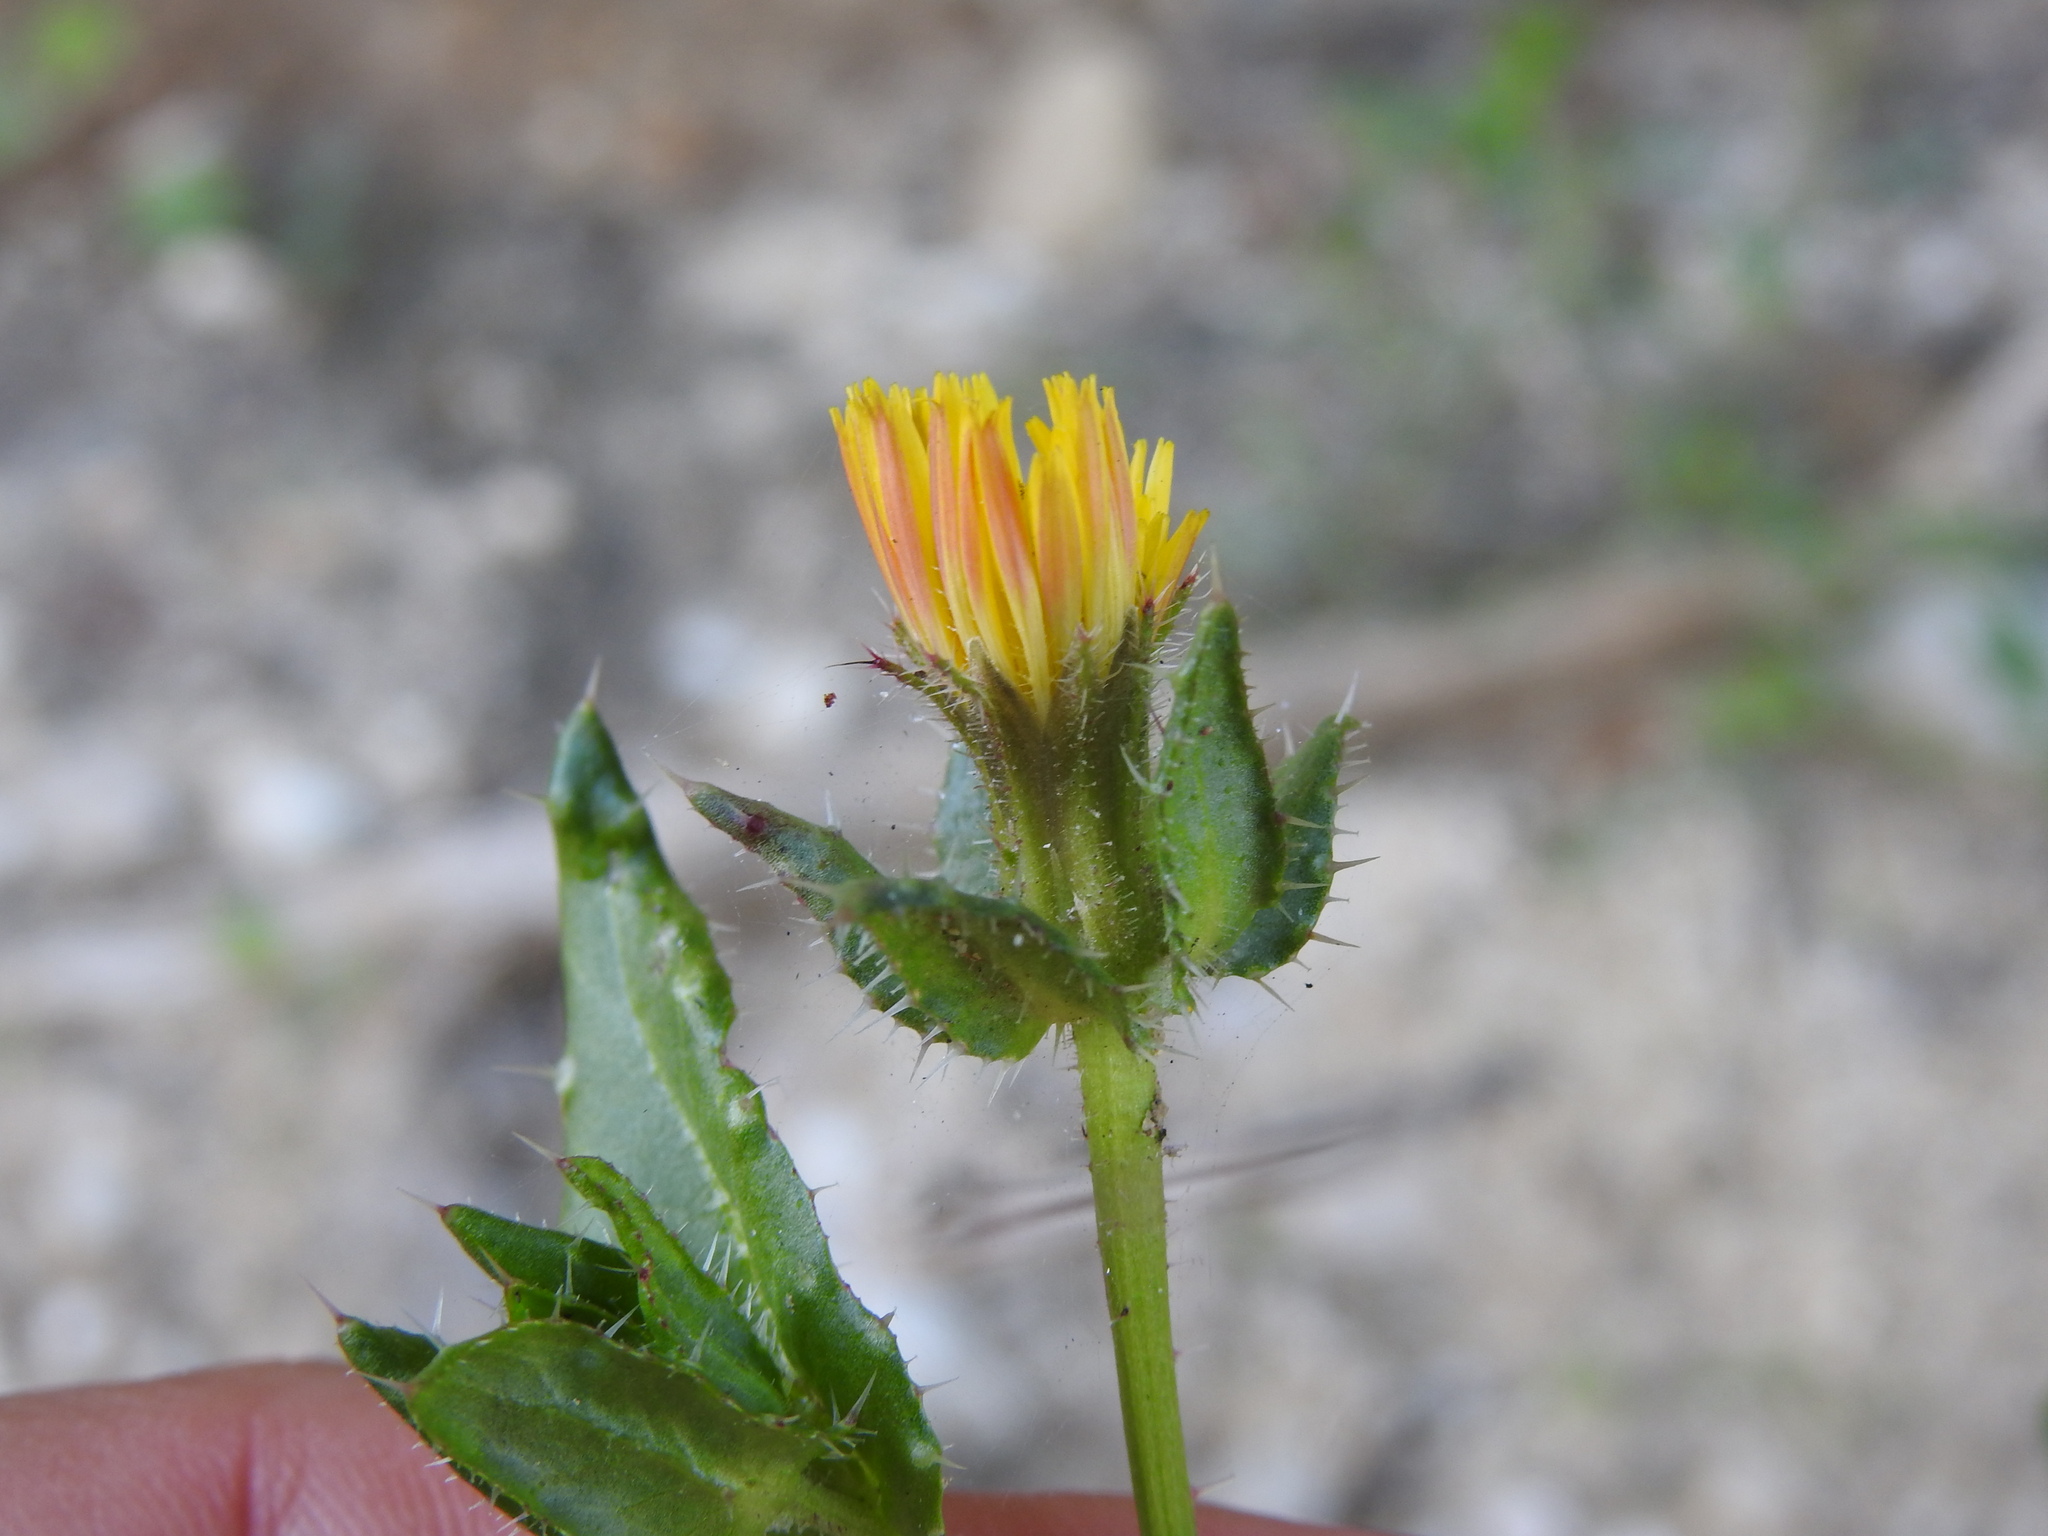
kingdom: Plantae
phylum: Tracheophyta
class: Magnoliopsida
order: Asterales
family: Asteraceae
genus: Helminthotheca
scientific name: Helminthotheca echioides
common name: Ox-tongue
